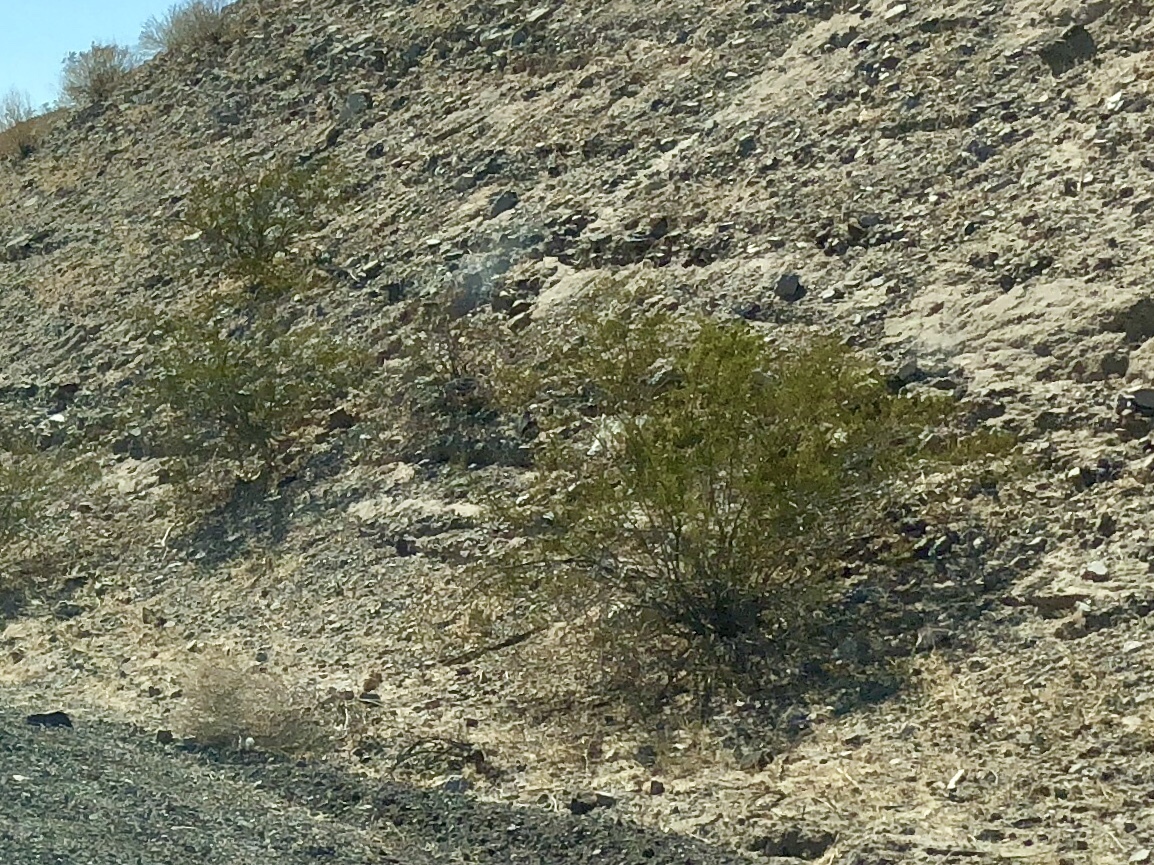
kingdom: Plantae
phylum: Tracheophyta
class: Magnoliopsida
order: Zygophyllales
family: Zygophyllaceae
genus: Larrea
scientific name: Larrea tridentata
